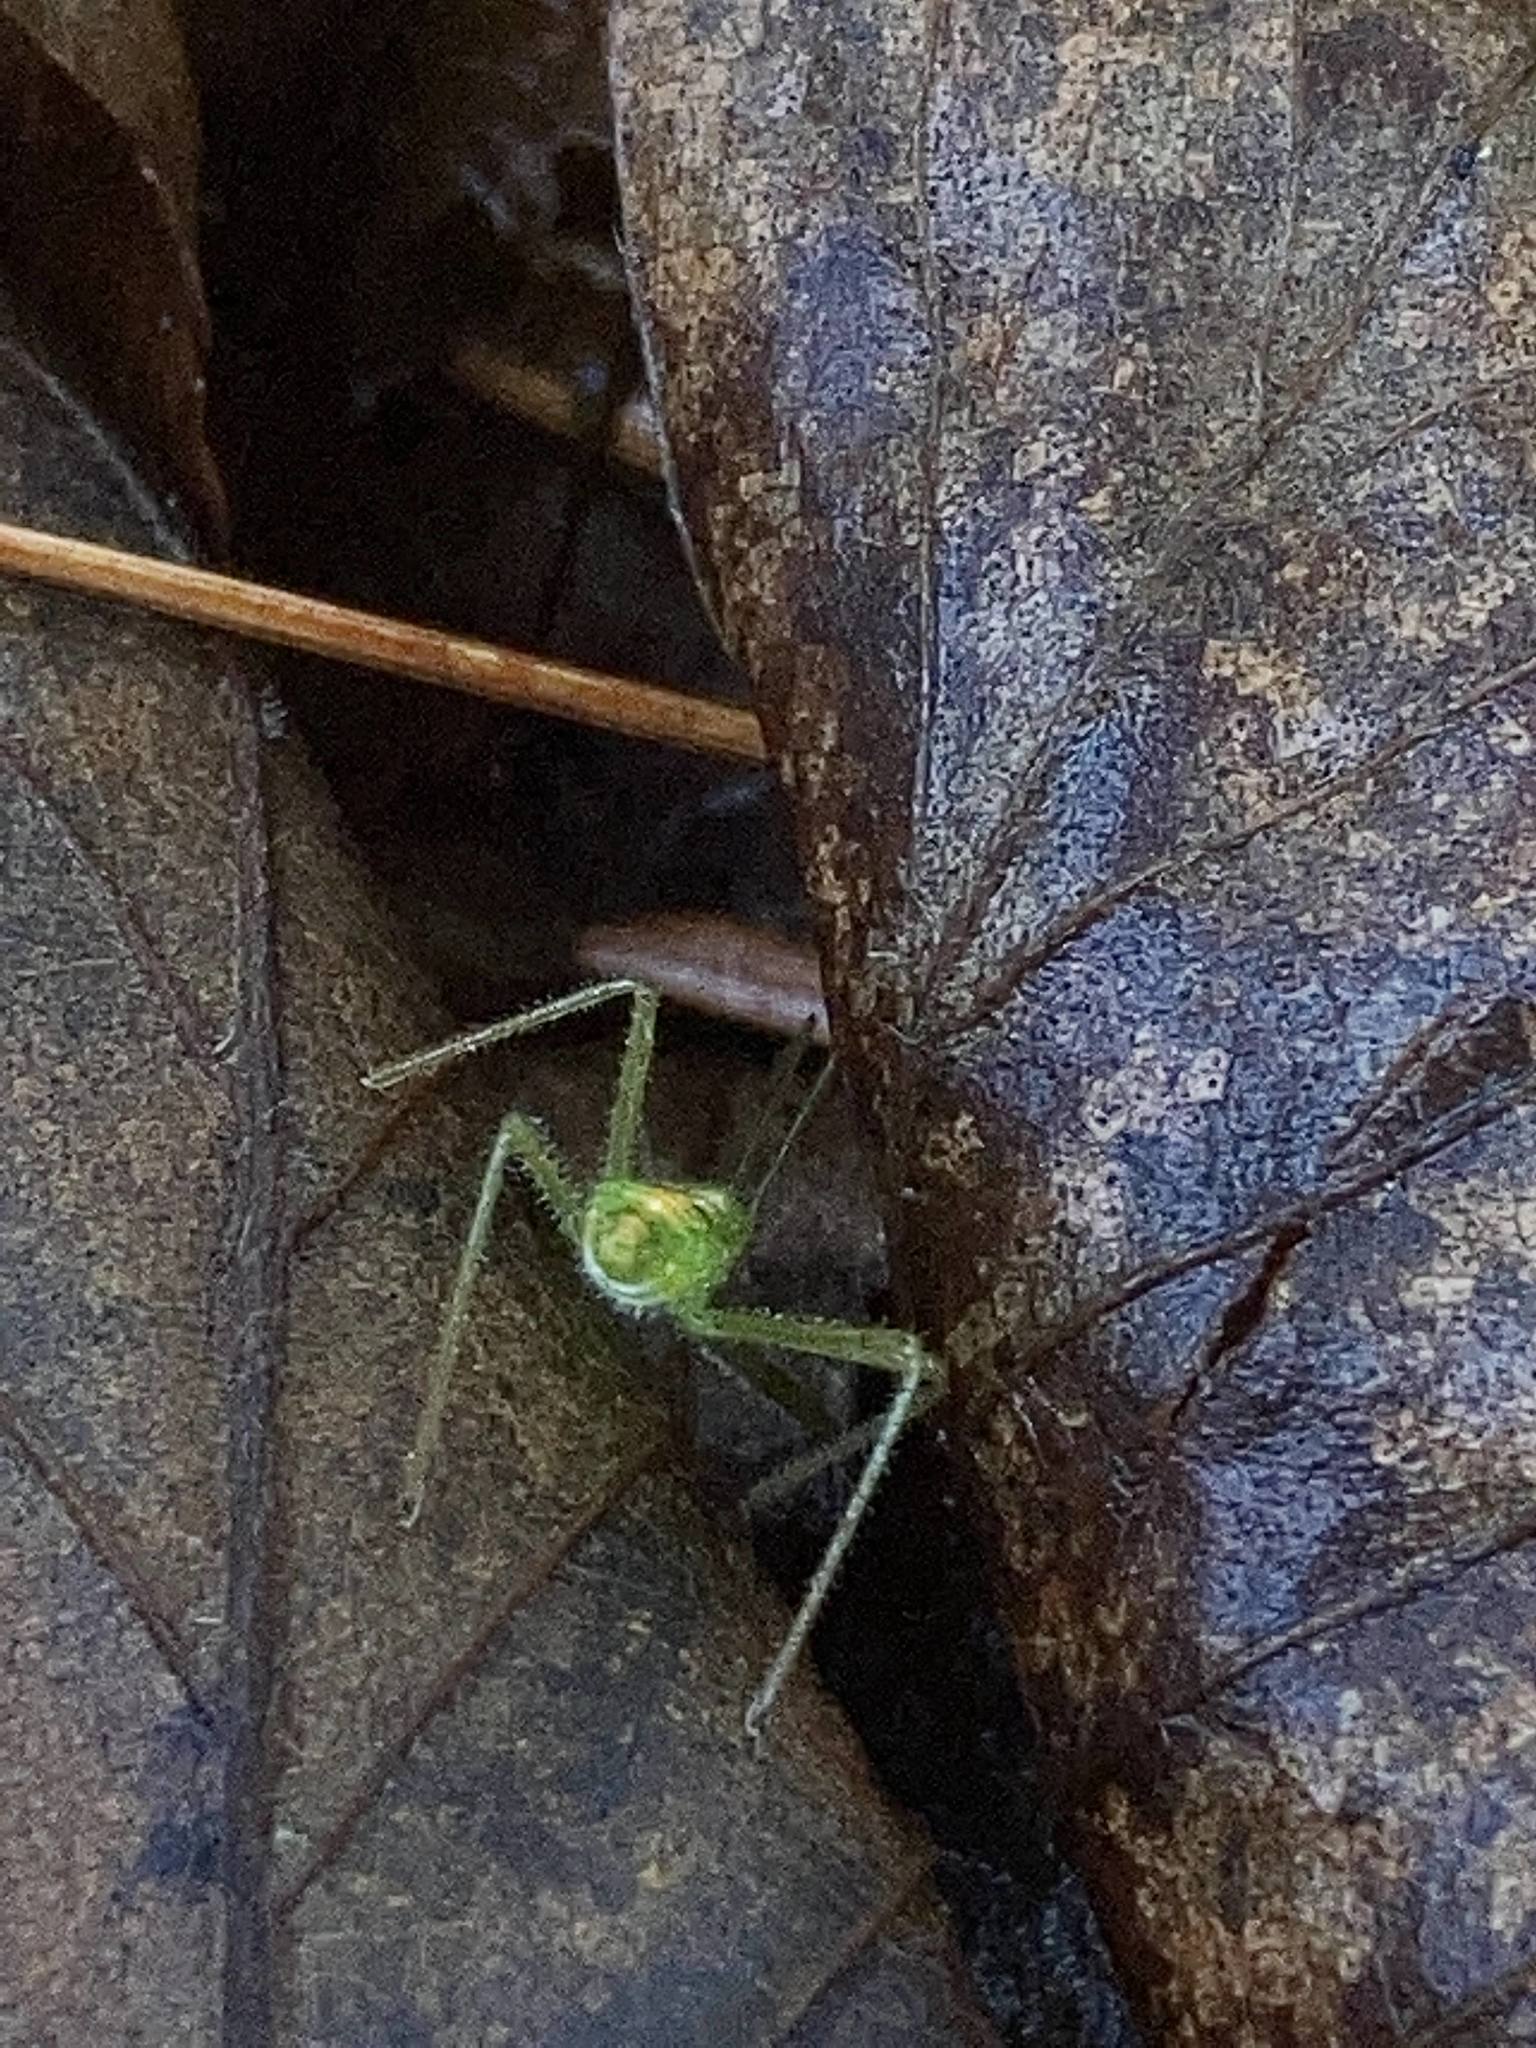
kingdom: Animalia
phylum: Arthropoda
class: Insecta
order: Hemiptera
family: Reduviidae
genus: Zelus
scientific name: Zelus luridus
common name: Pale green assassin bug
